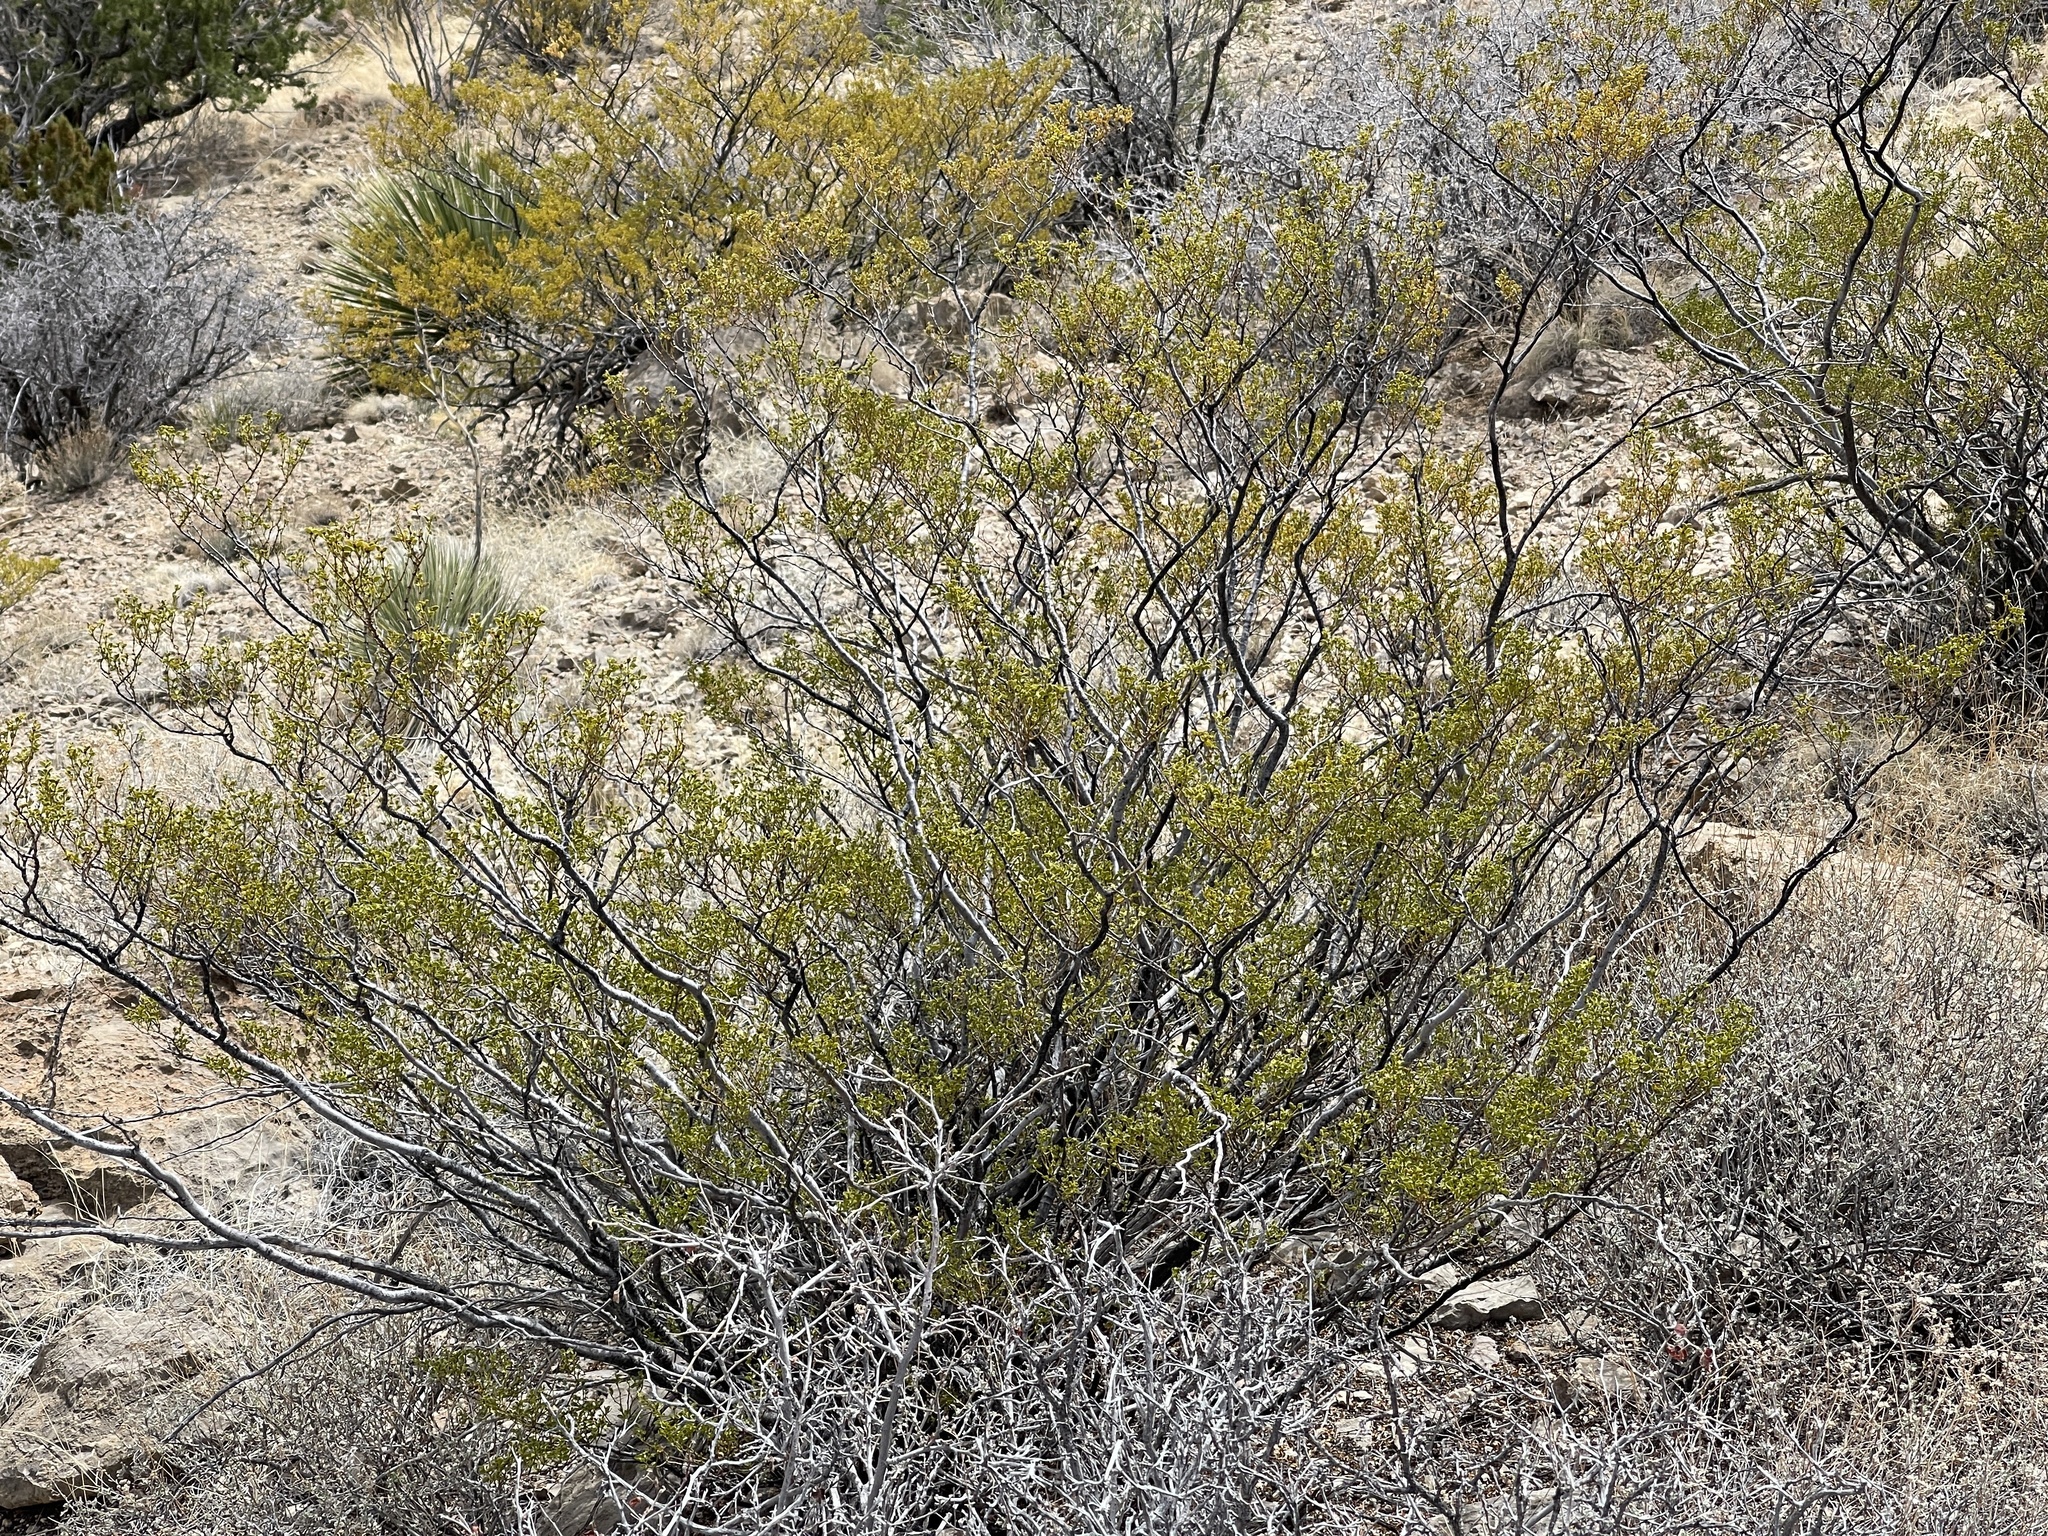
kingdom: Plantae
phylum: Tracheophyta
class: Magnoliopsida
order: Zygophyllales
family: Zygophyllaceae
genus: Larrea
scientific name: Larrea tridentata
